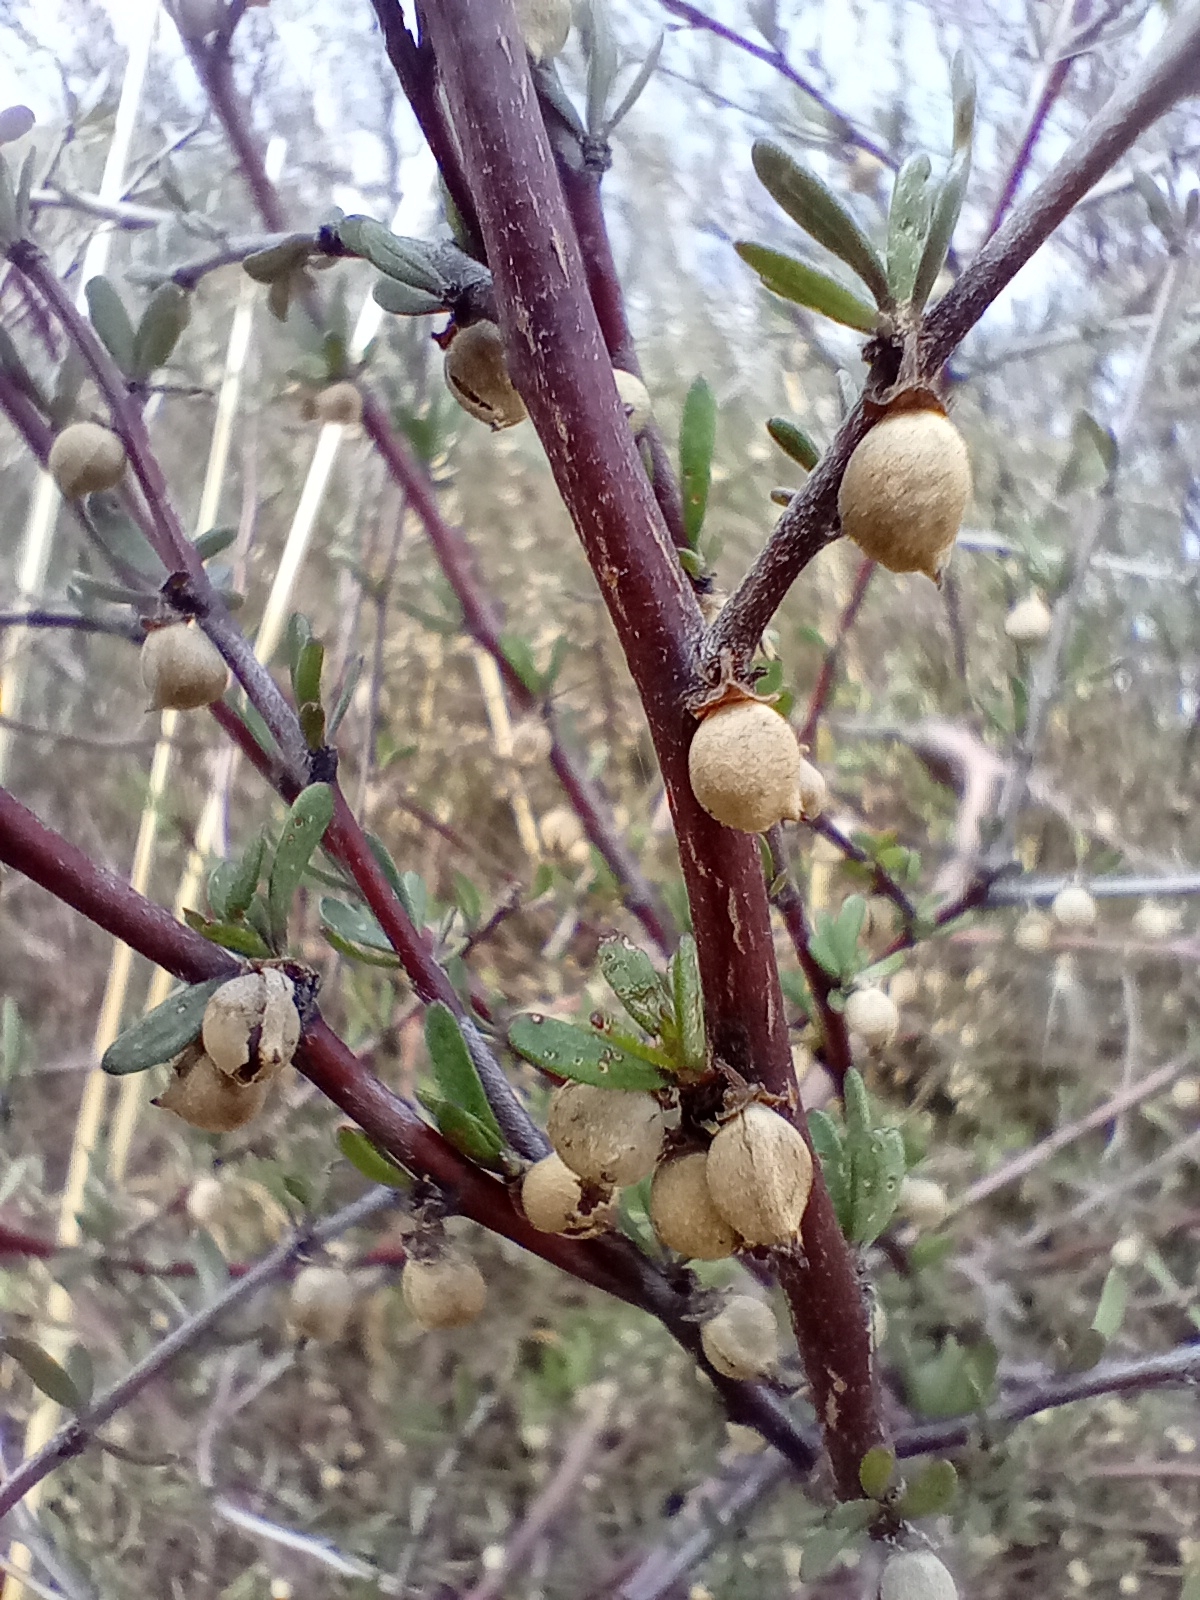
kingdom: Plantae
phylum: Tracheophyta
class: Magnoliopsida
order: Malvales
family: Malvaceae
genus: Plagianthus
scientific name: Plagianthus divaricatus
